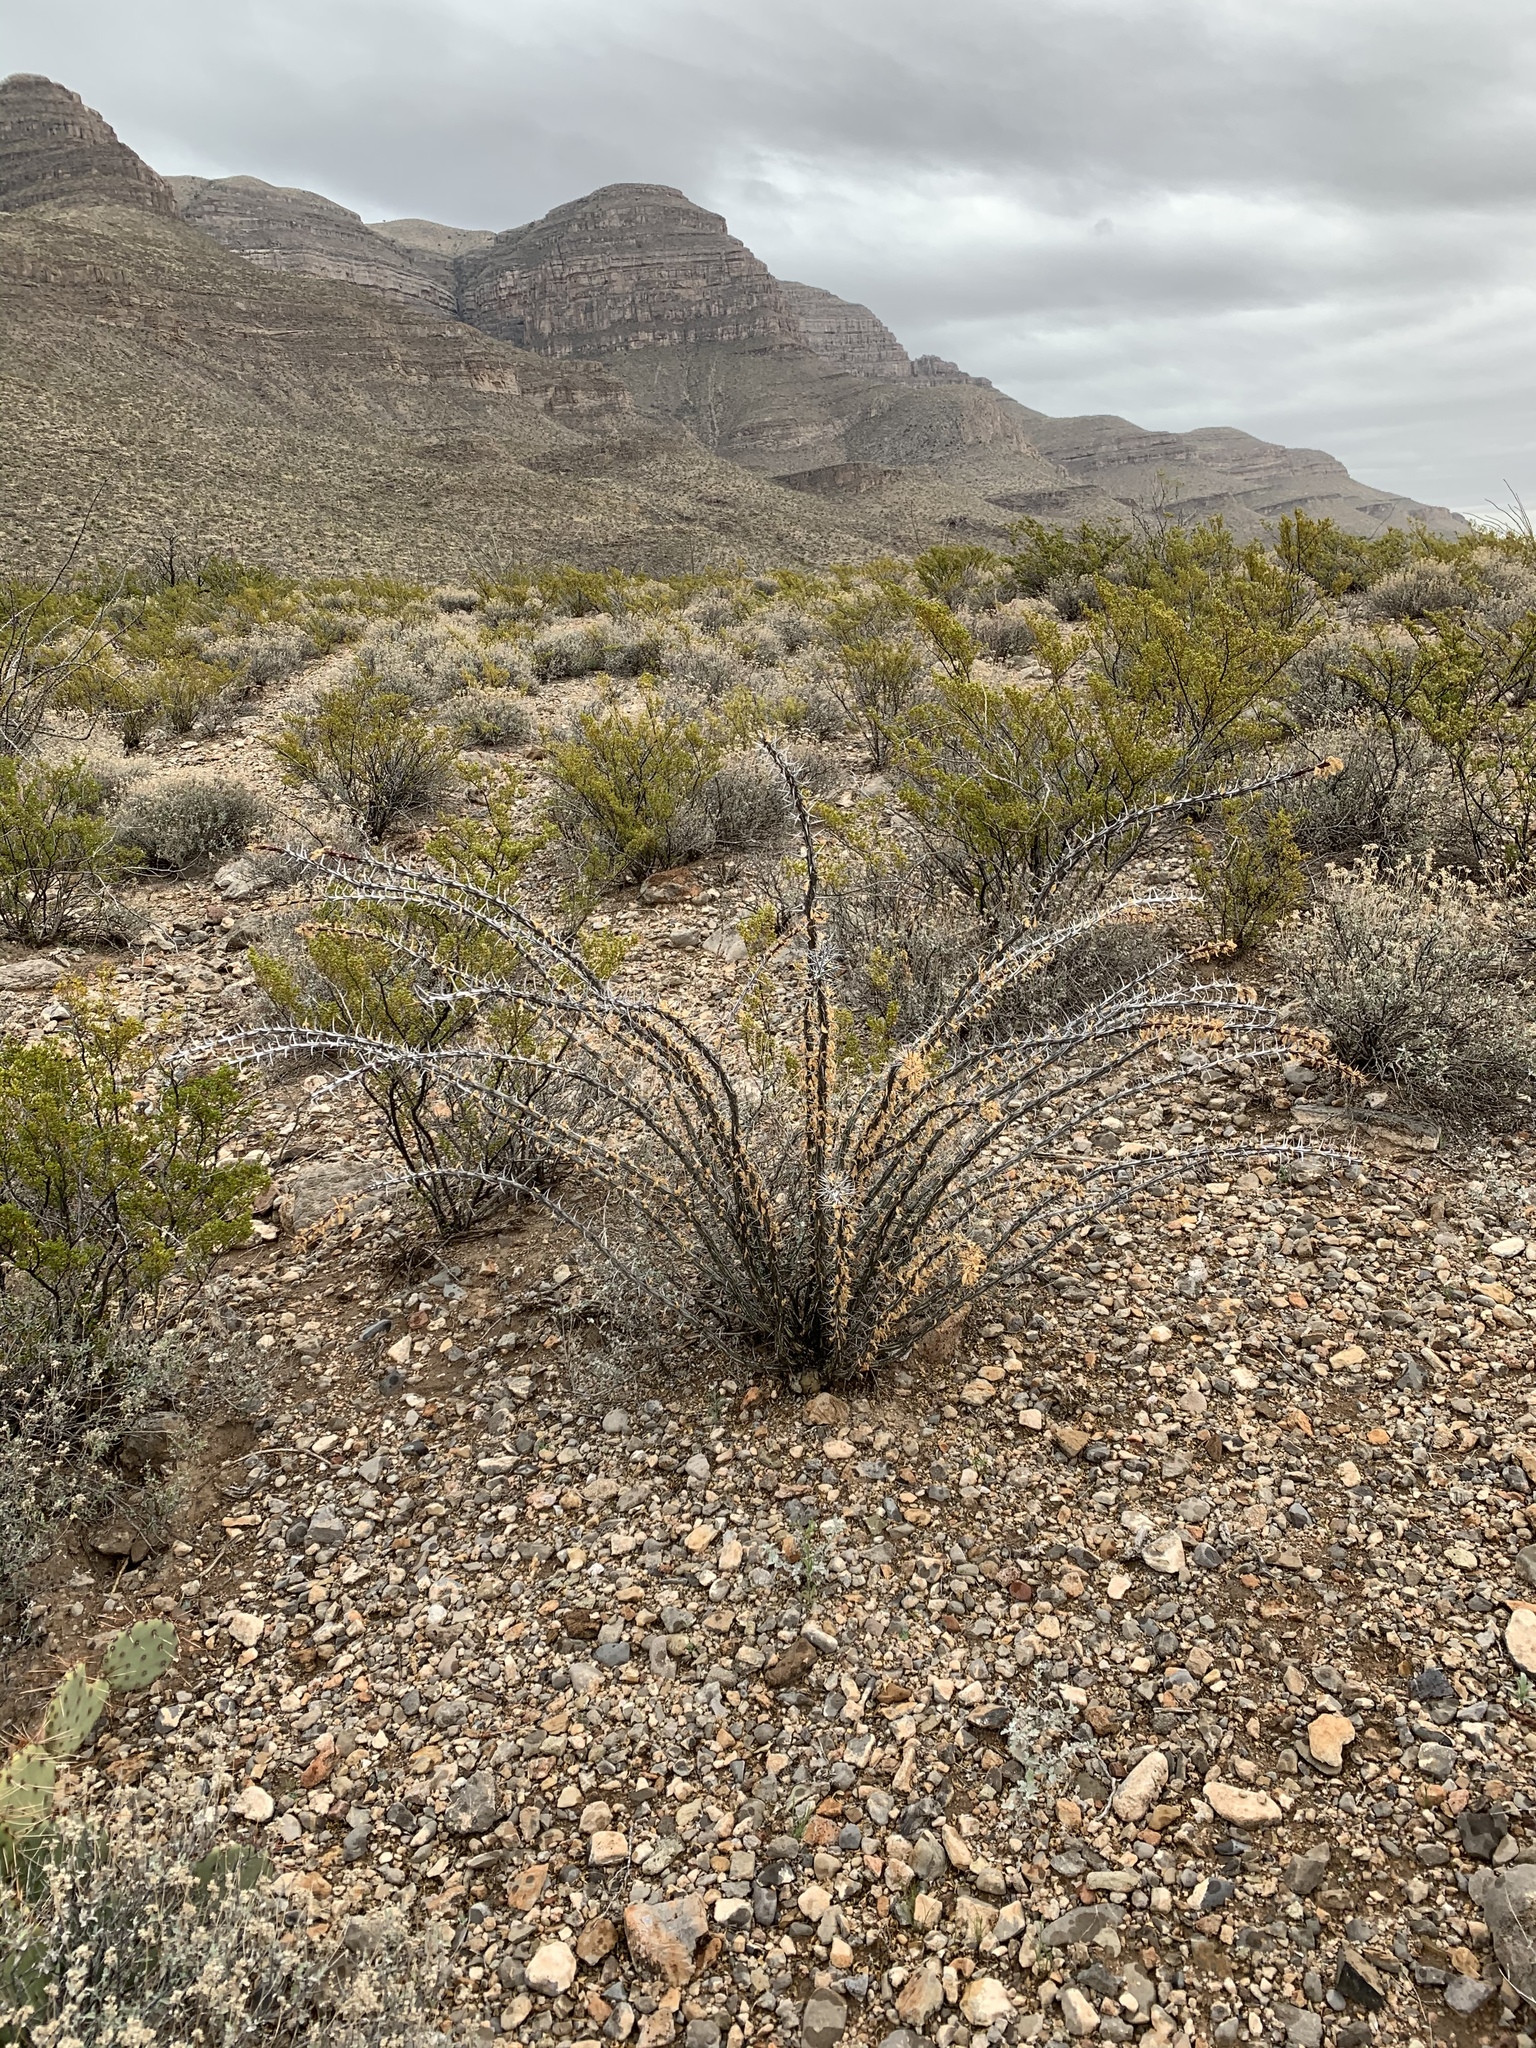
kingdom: Plantae
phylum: Tracheophyta
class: Magnoliopsida
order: Ericales
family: Fouquieriaceae
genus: Fouquieria
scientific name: Fouquieria splendens
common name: Vine-cactus
